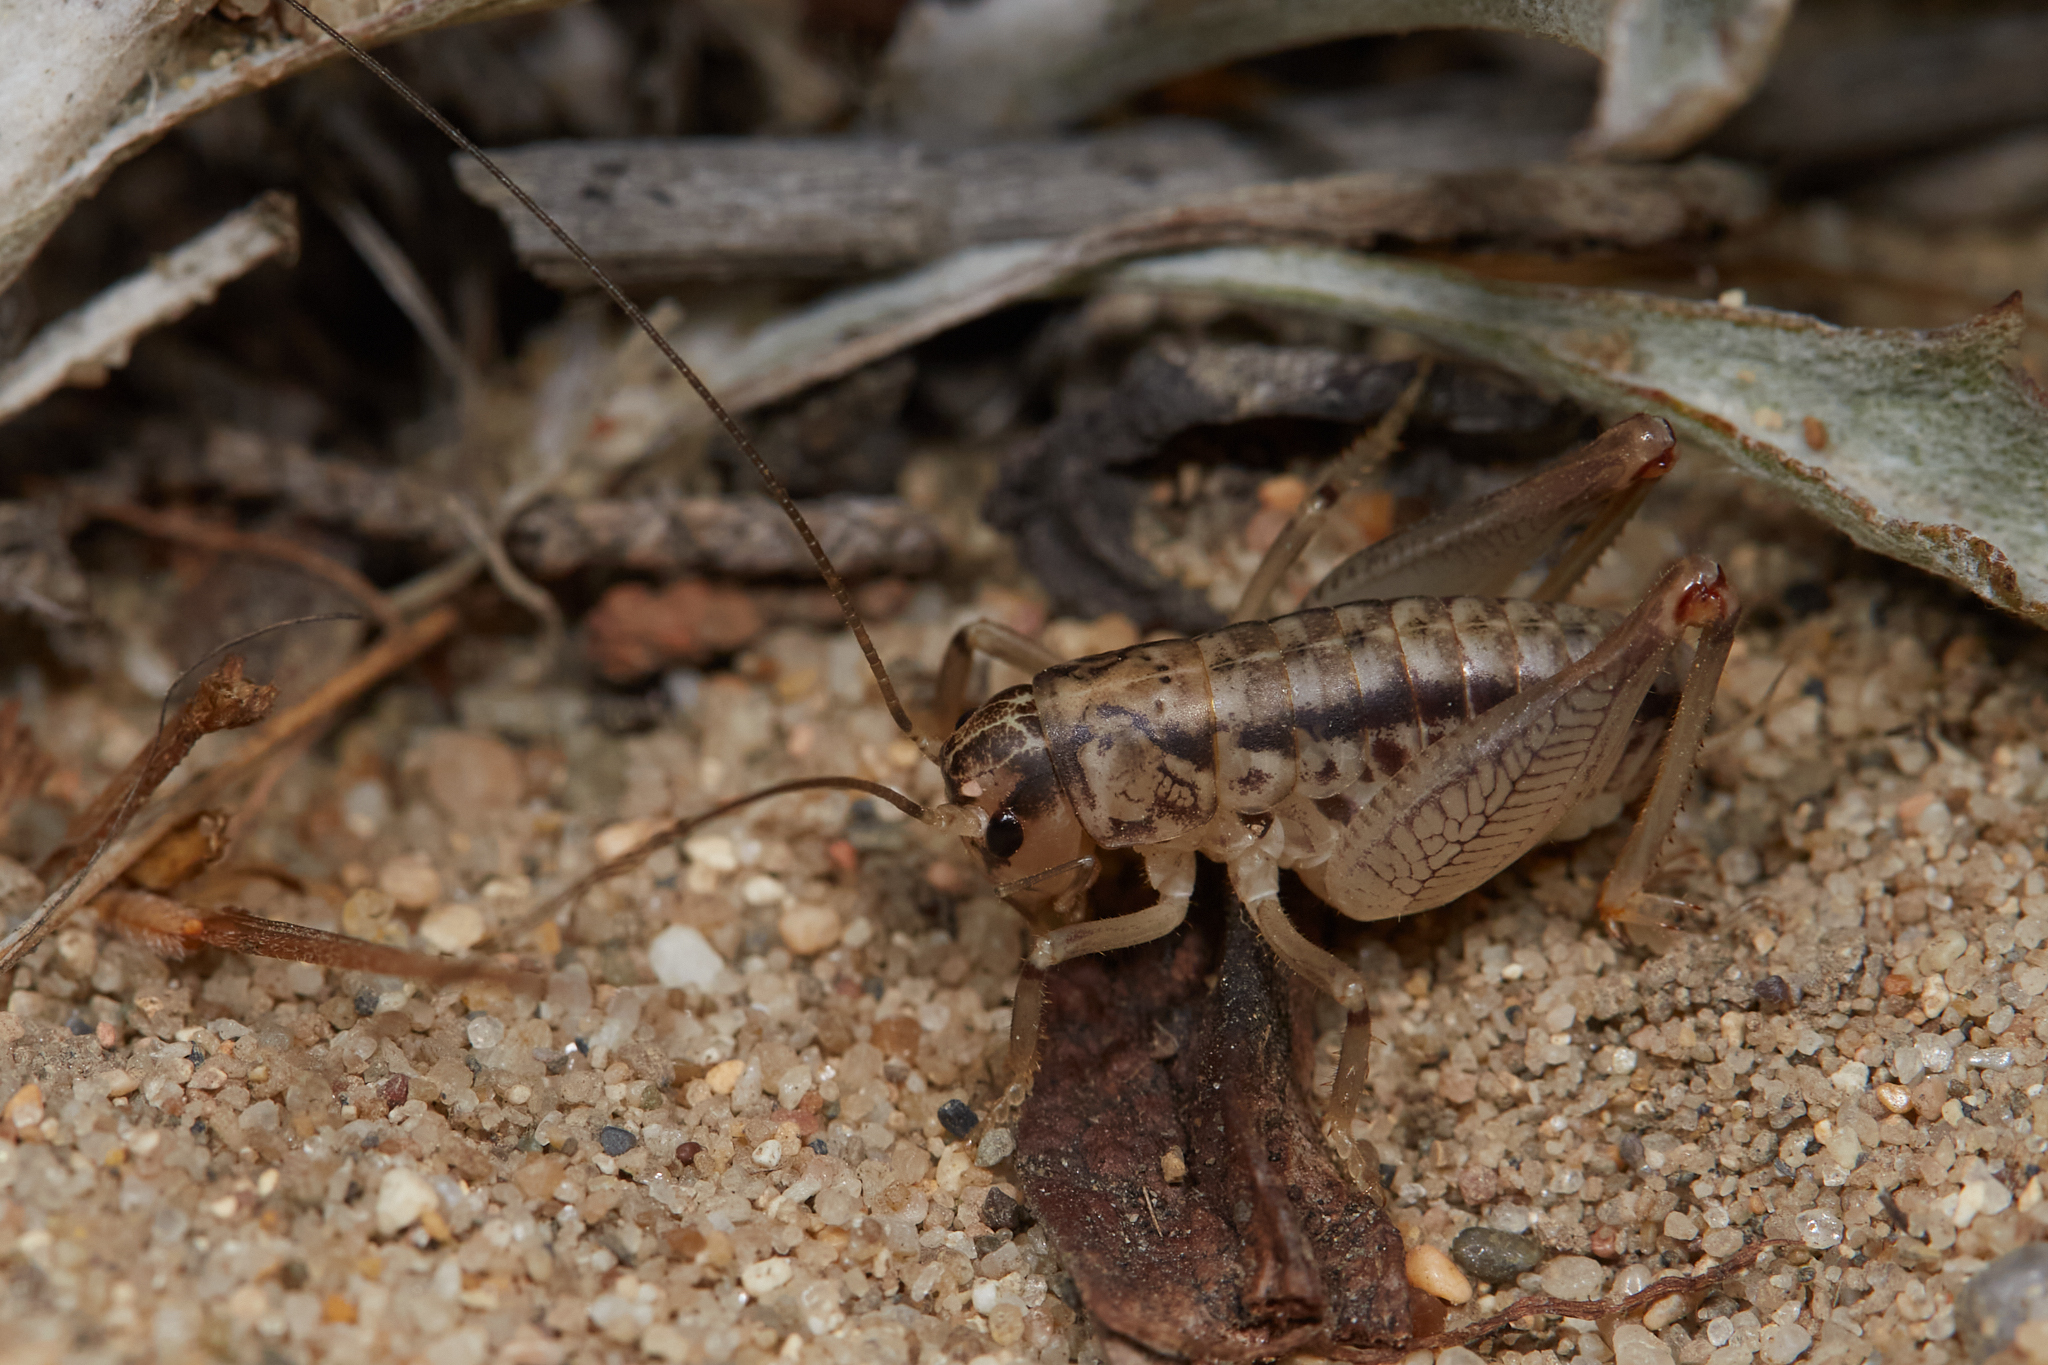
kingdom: Animalia
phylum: Arthropoda
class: Insecta
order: Orthoptera
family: Anostostomatidae
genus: Cnemotettix
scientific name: Cnemotettix bifasciatus
